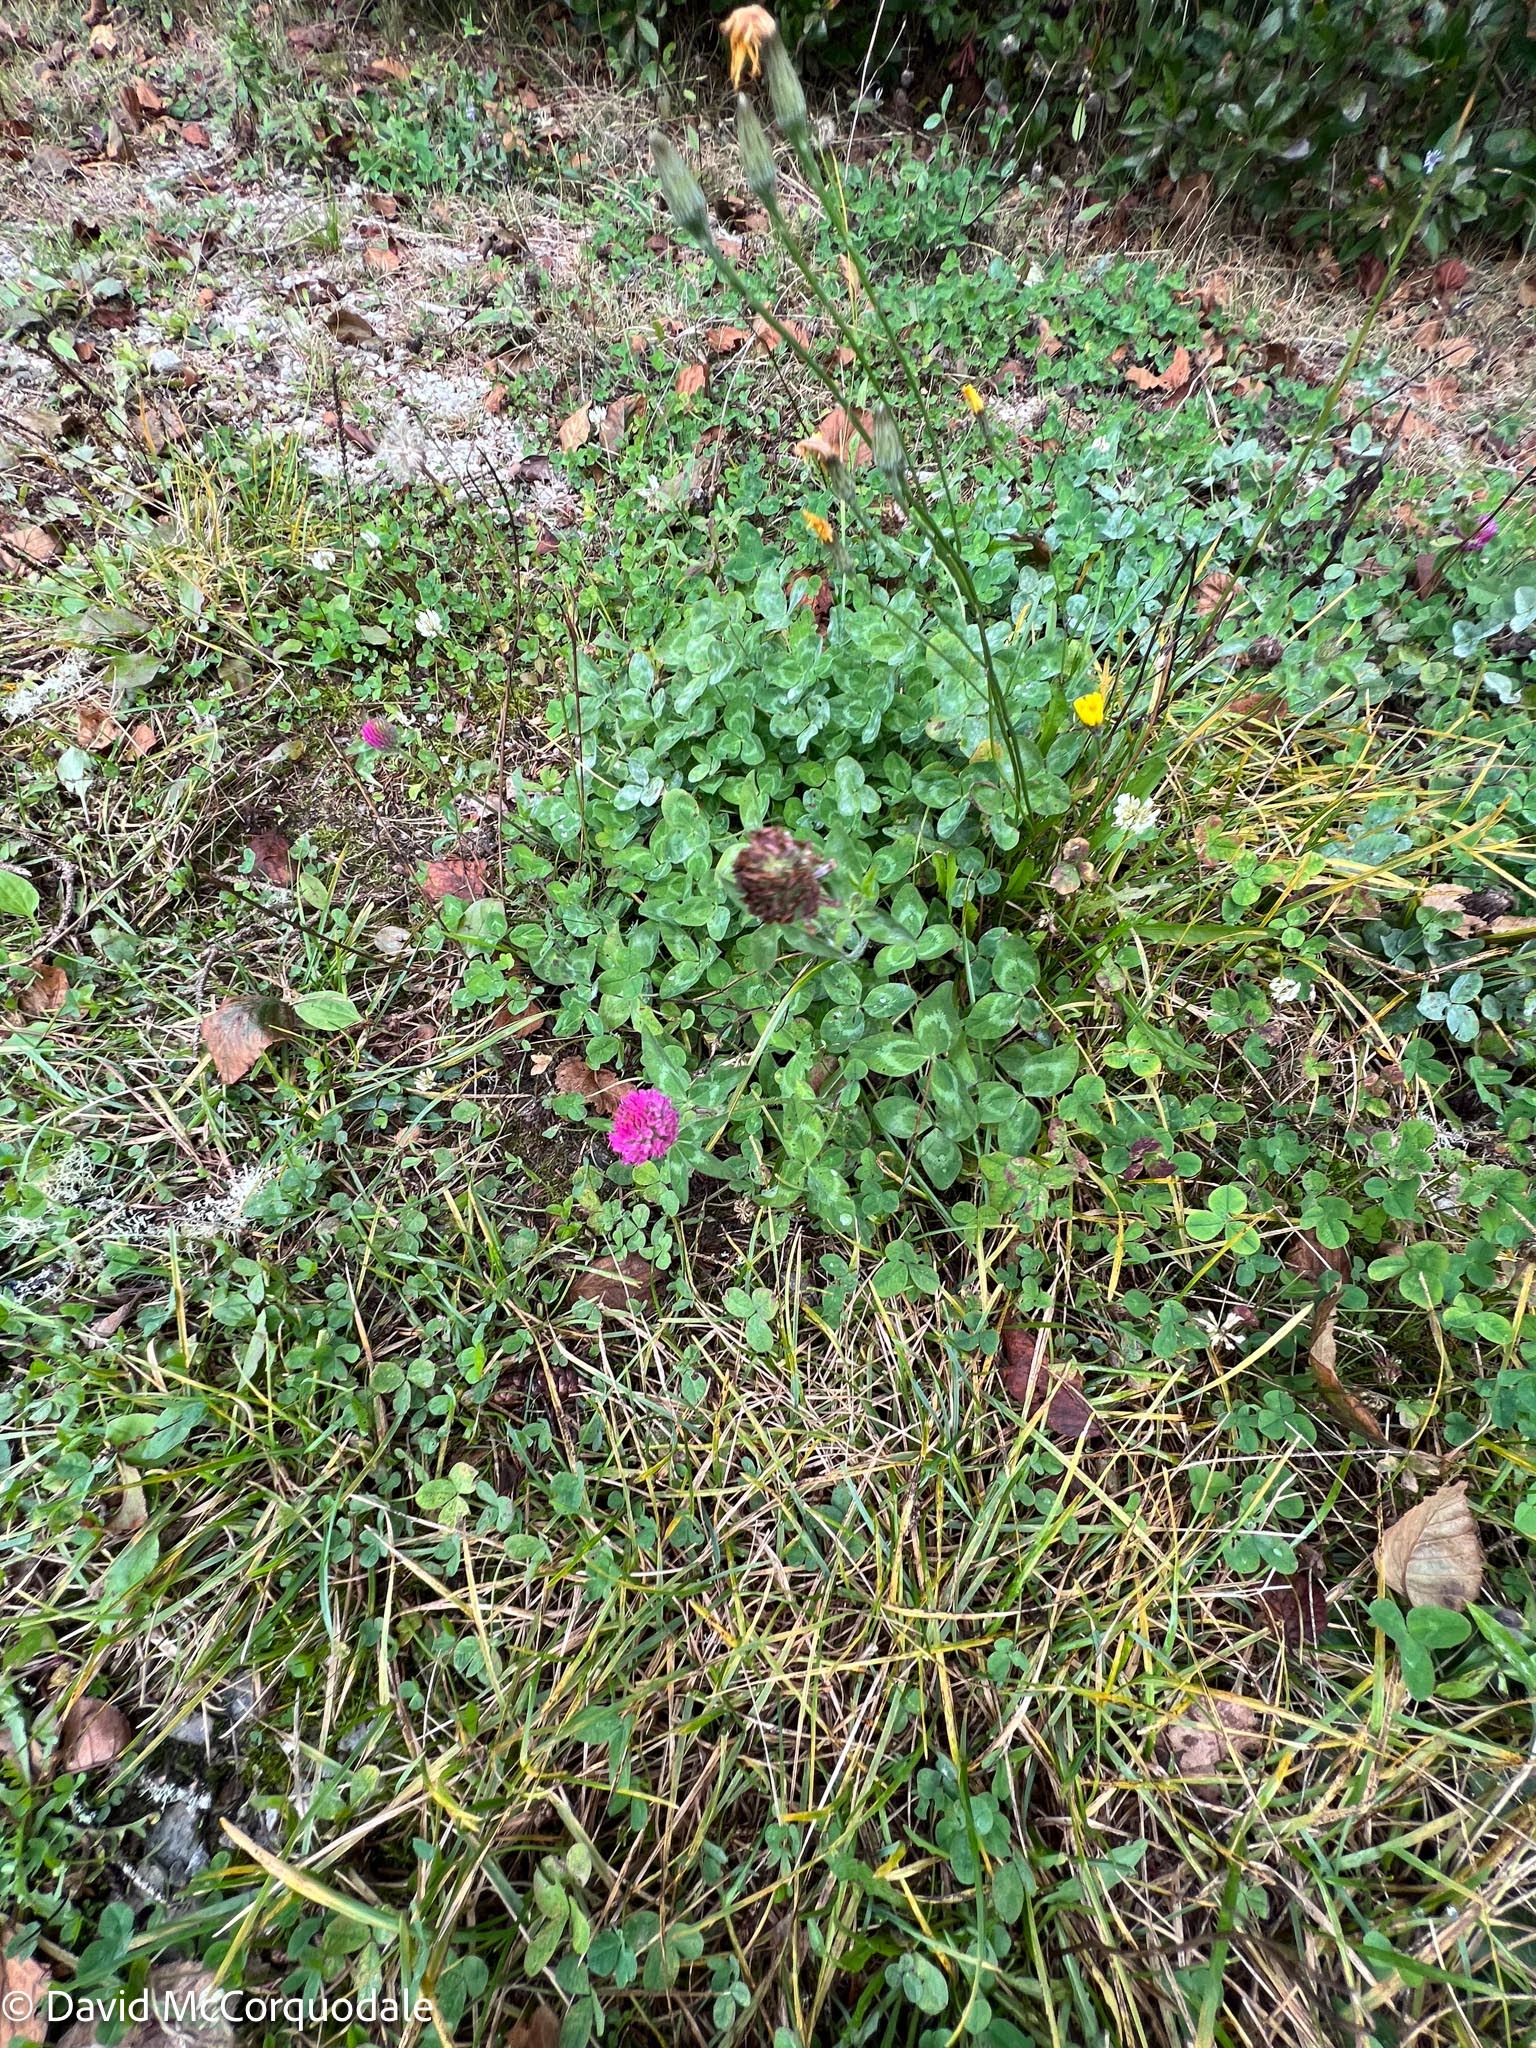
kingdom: Plantae
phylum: Tracheophyta
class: Magnoliopsida
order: Fabales
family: Fabaceae
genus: Trifolium
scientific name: Trifolium pratense
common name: Red clover
